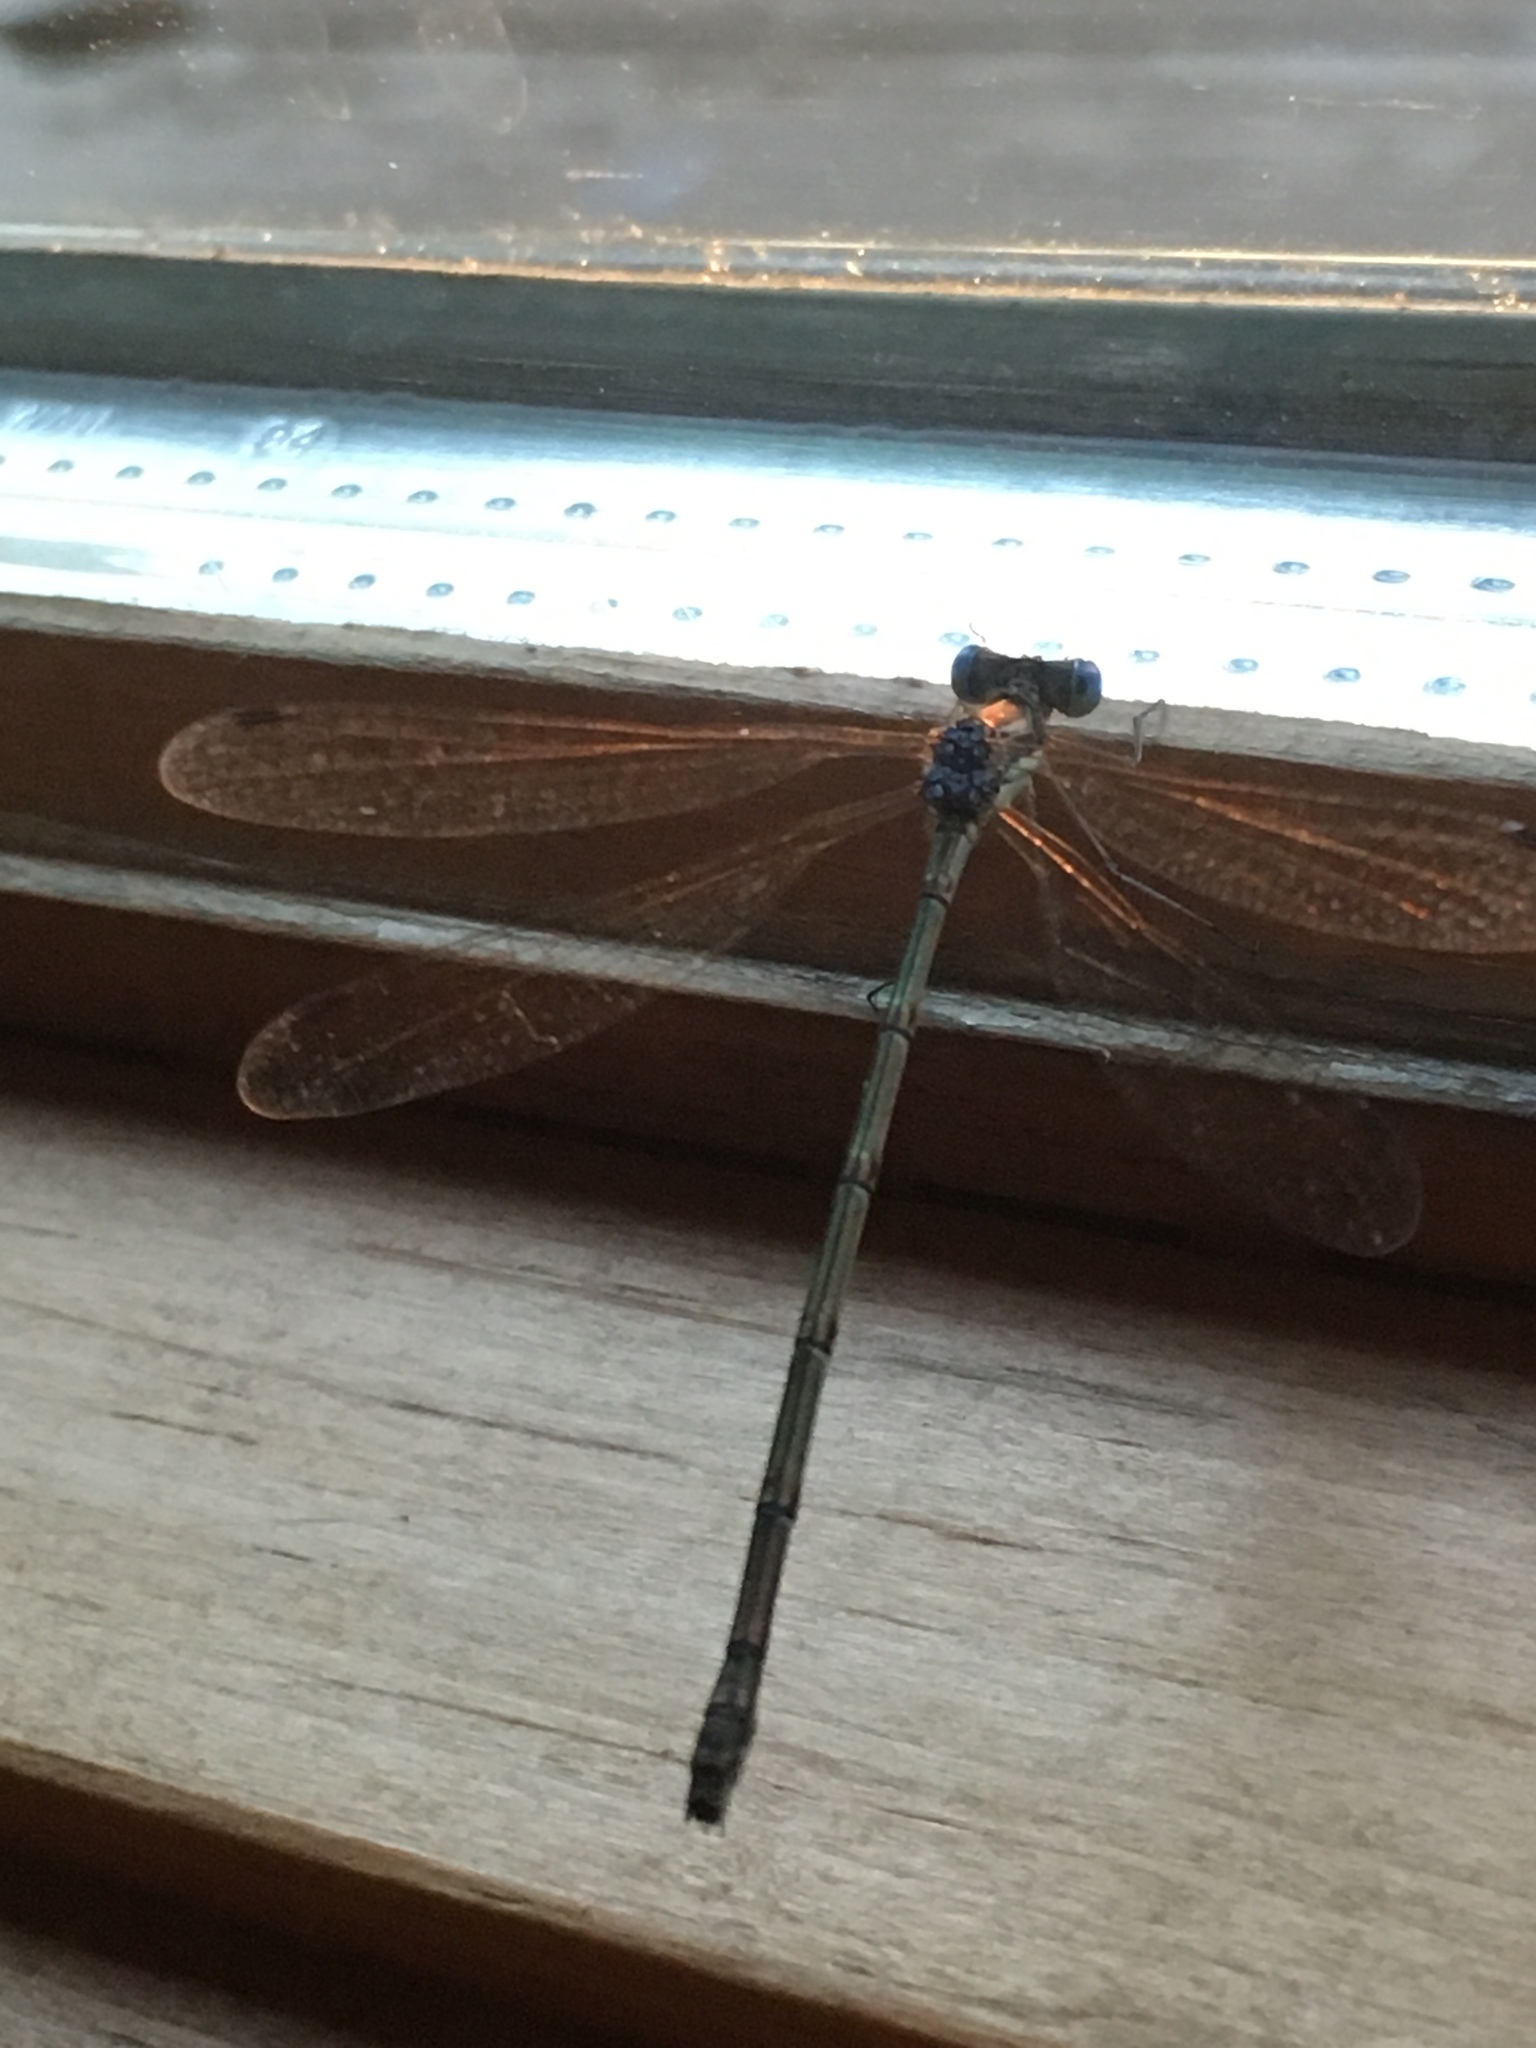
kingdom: Animalia
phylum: Arthropoda
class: Insecta
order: Odonata
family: Lestidae
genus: Lestes
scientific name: Lestes rectangularis
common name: Slender spreadwing
